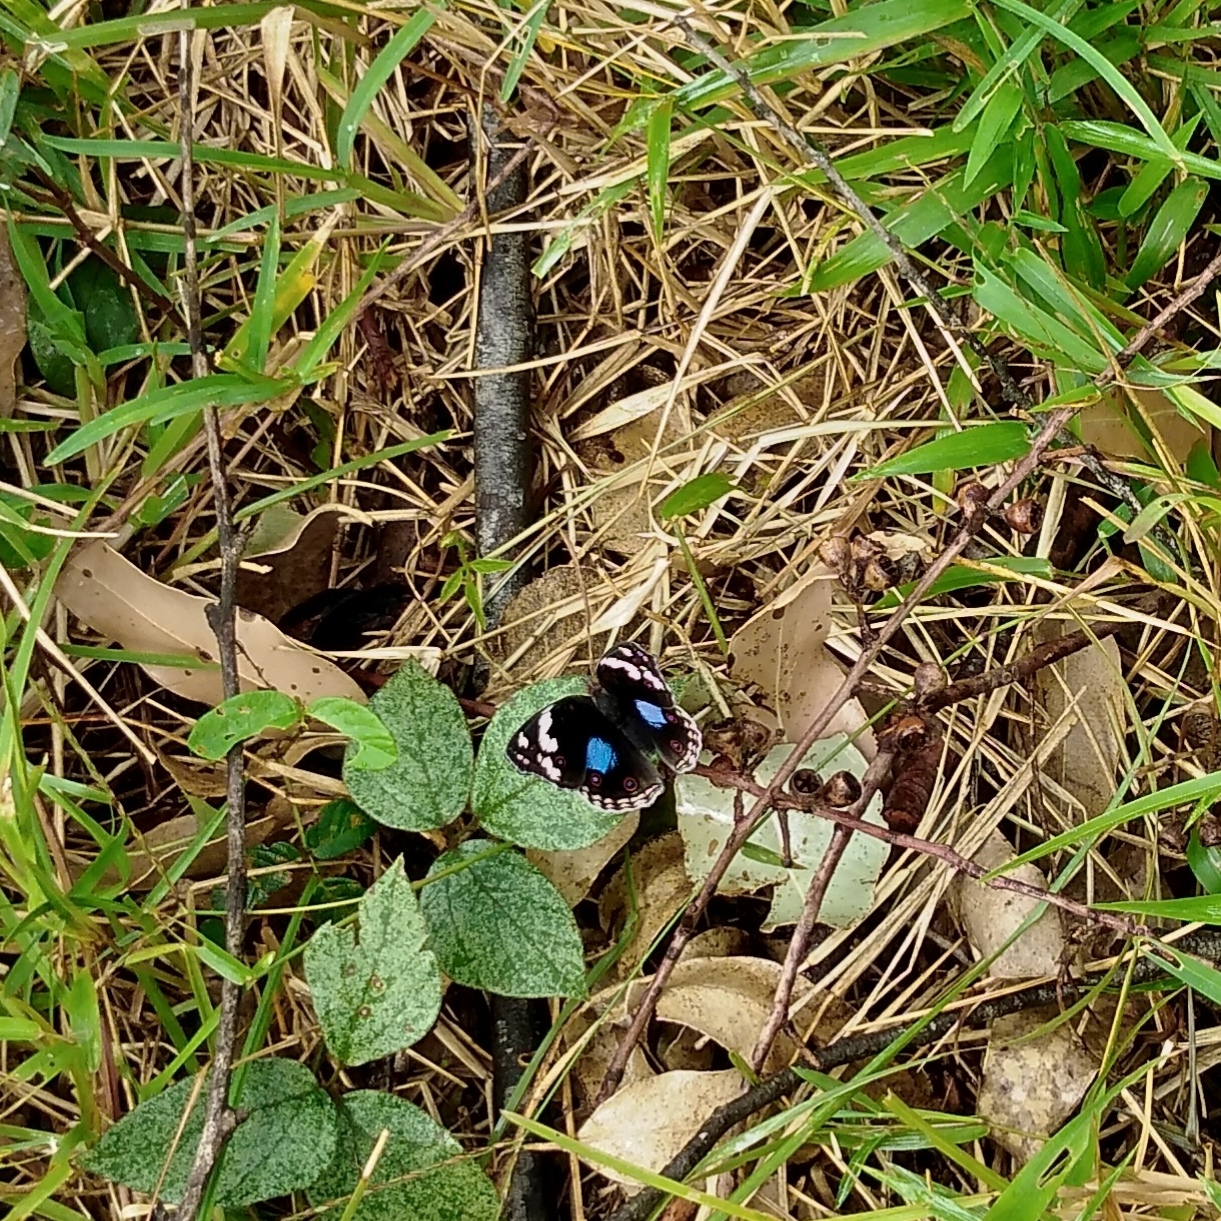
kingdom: Animalia
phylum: Arthropoda
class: Insecta
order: Lepidoptera
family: Nymphalidae
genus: Junonia
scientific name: Junonia oenone
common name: Dark blue pansy
